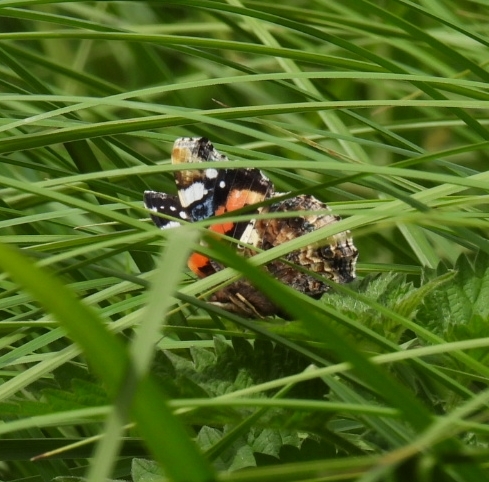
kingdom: Animalia
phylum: Arthropoda
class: Insecta
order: Lepidoptera
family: Nymphalidae
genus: Vanessa
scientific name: Vanessa atalanta
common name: Red admiral
